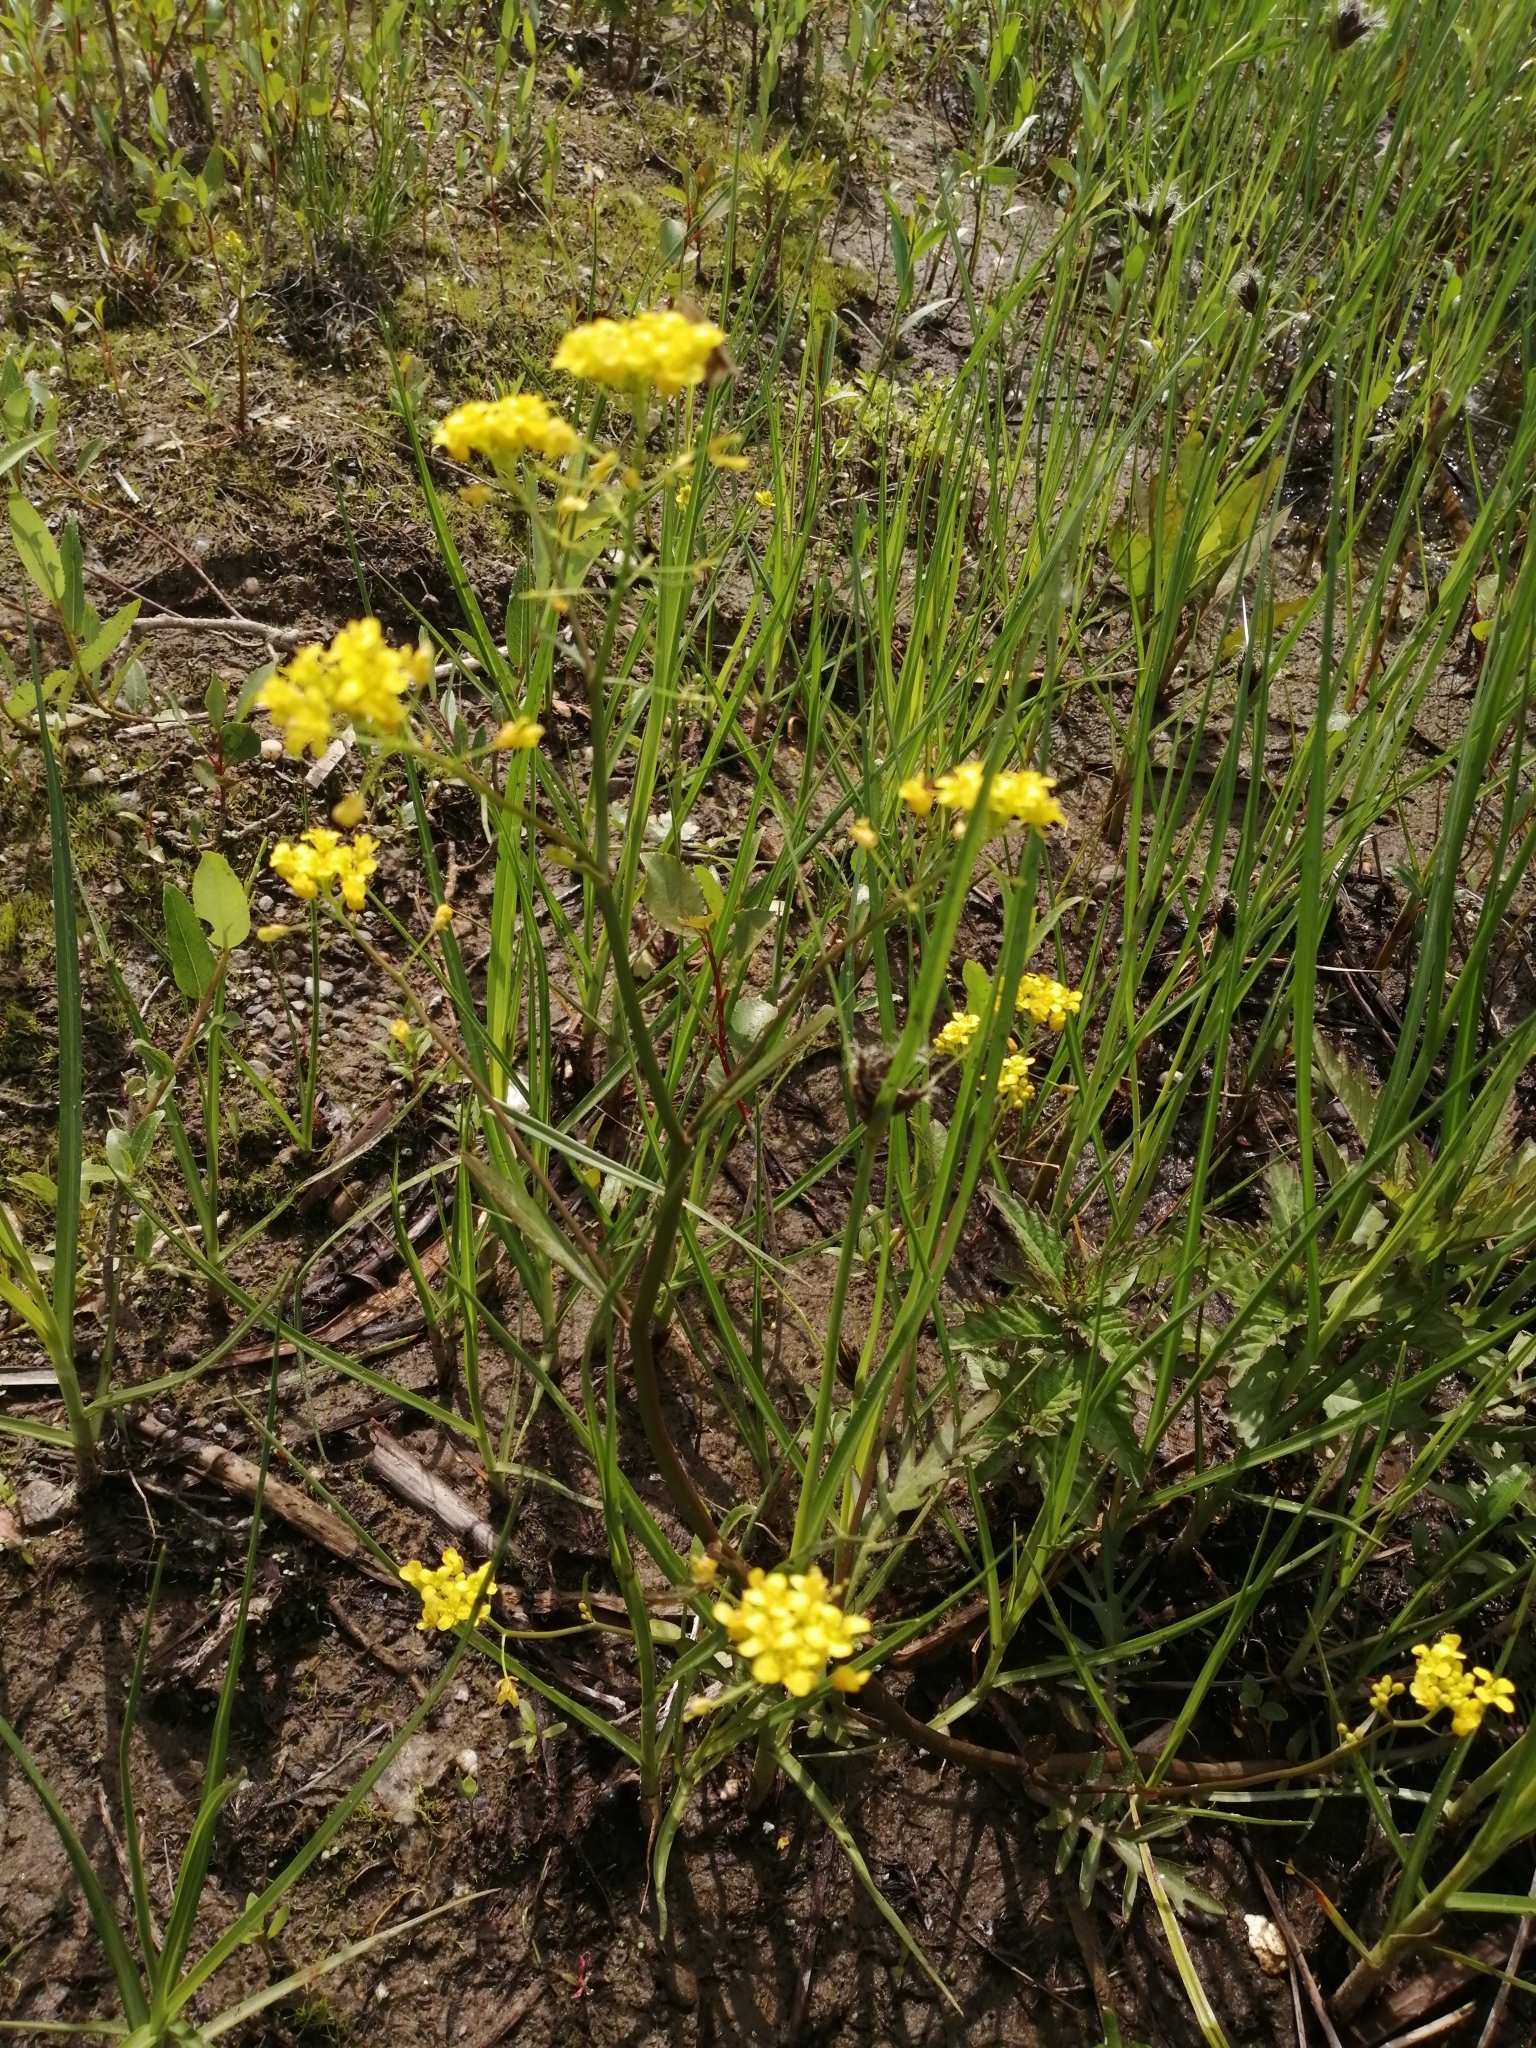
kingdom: Plantae
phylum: Tracheophyta
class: Magnoliopsida
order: Brassicales
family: Brassicaceae
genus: Rorippa
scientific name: Rorippa brachycarpa
